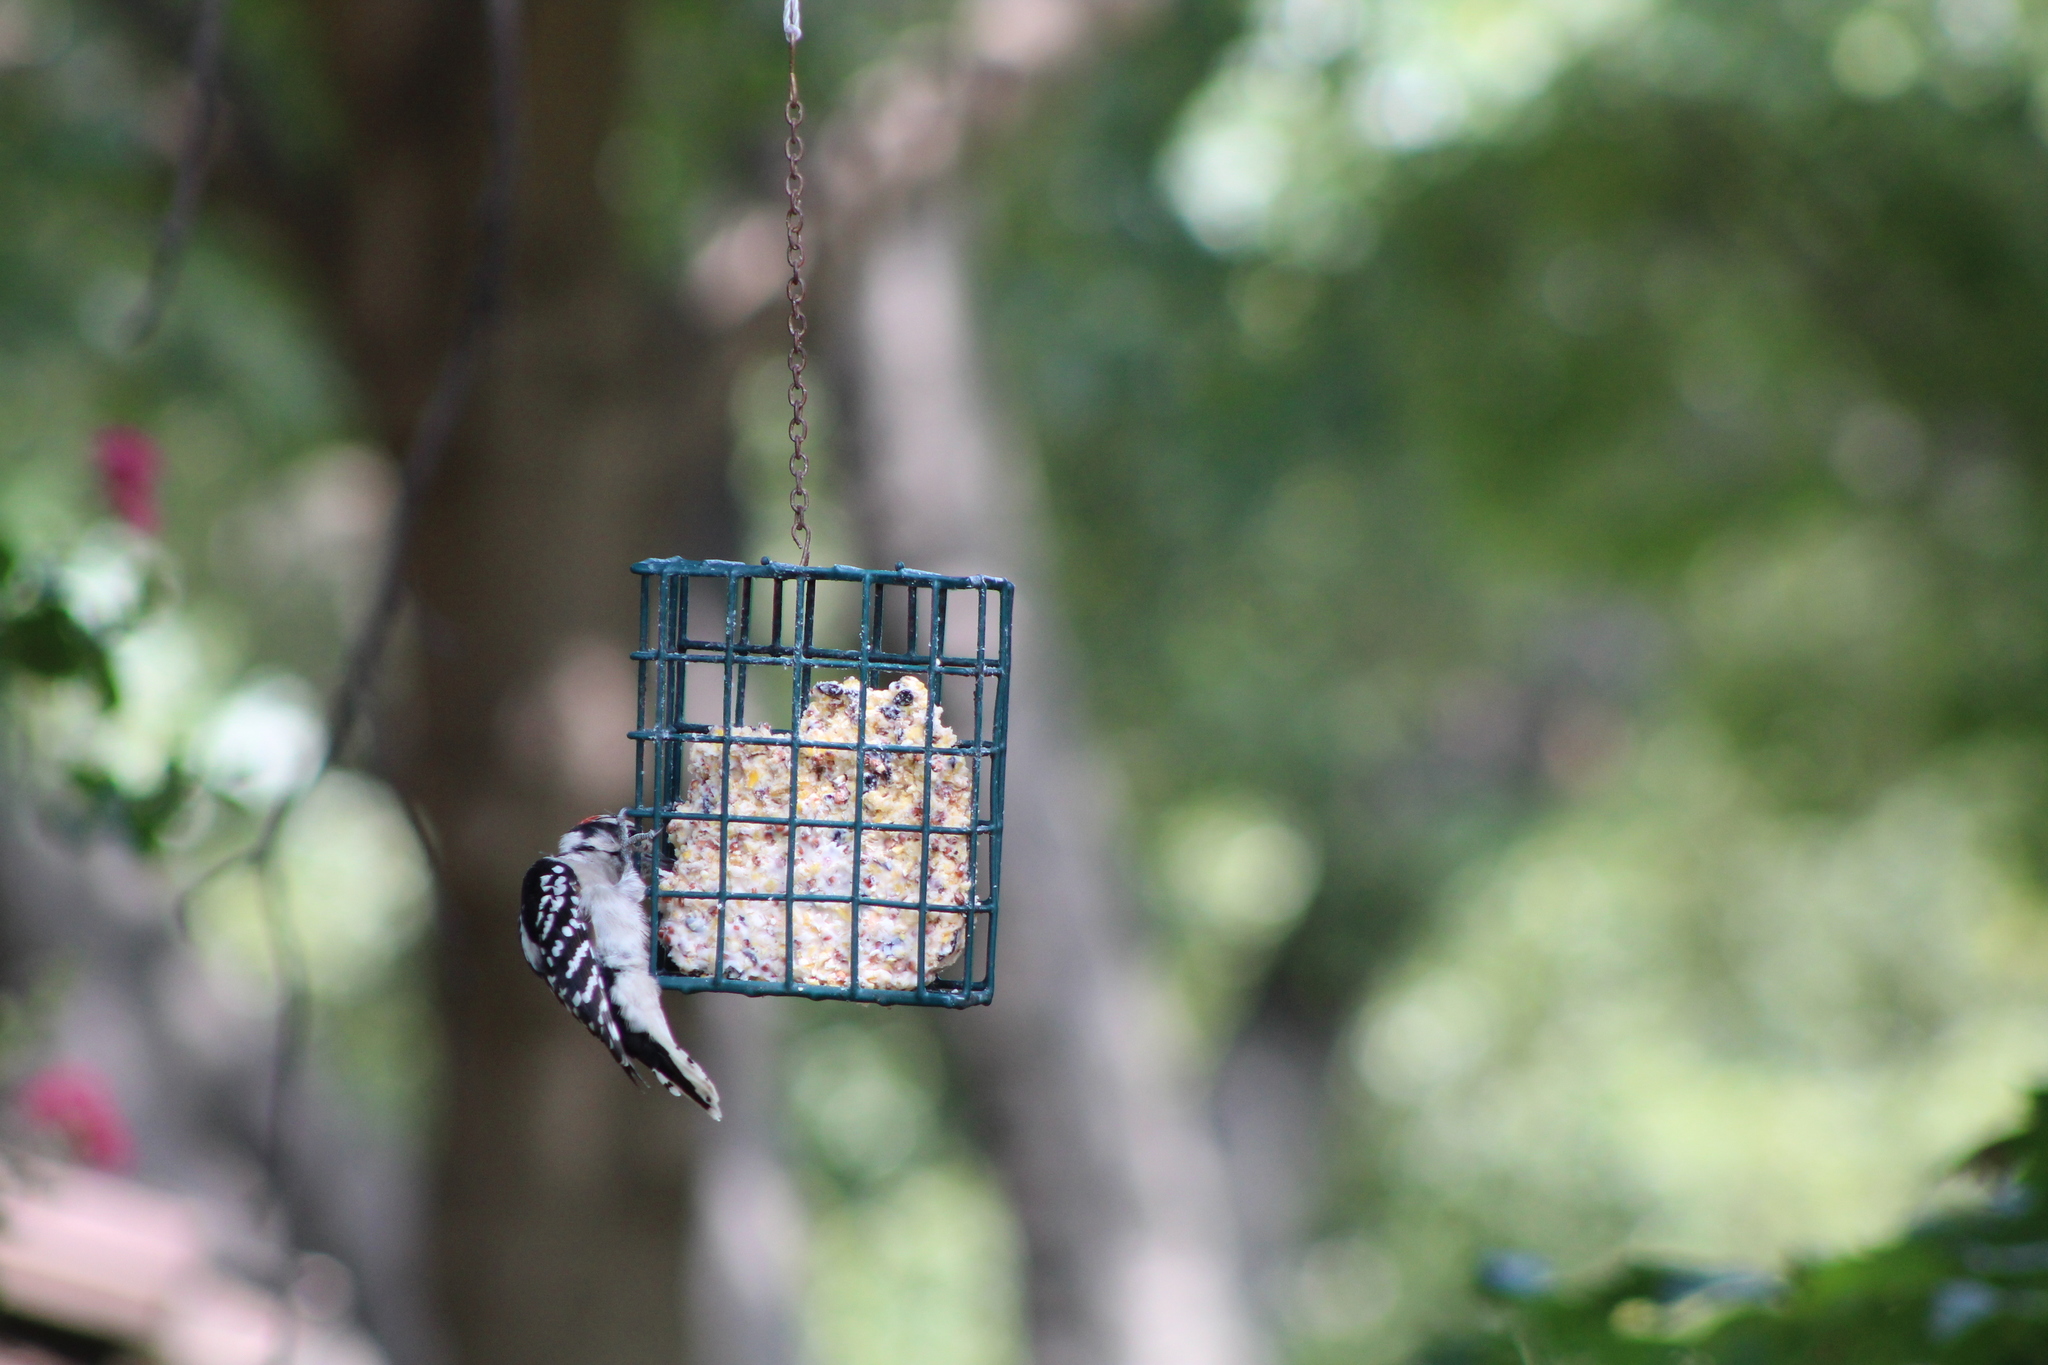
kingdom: Animalia
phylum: Chordata
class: Aves
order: Piciformes
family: Picidae
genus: Dryobates
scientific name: Dryobates pubescens
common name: Downy woodpecker
